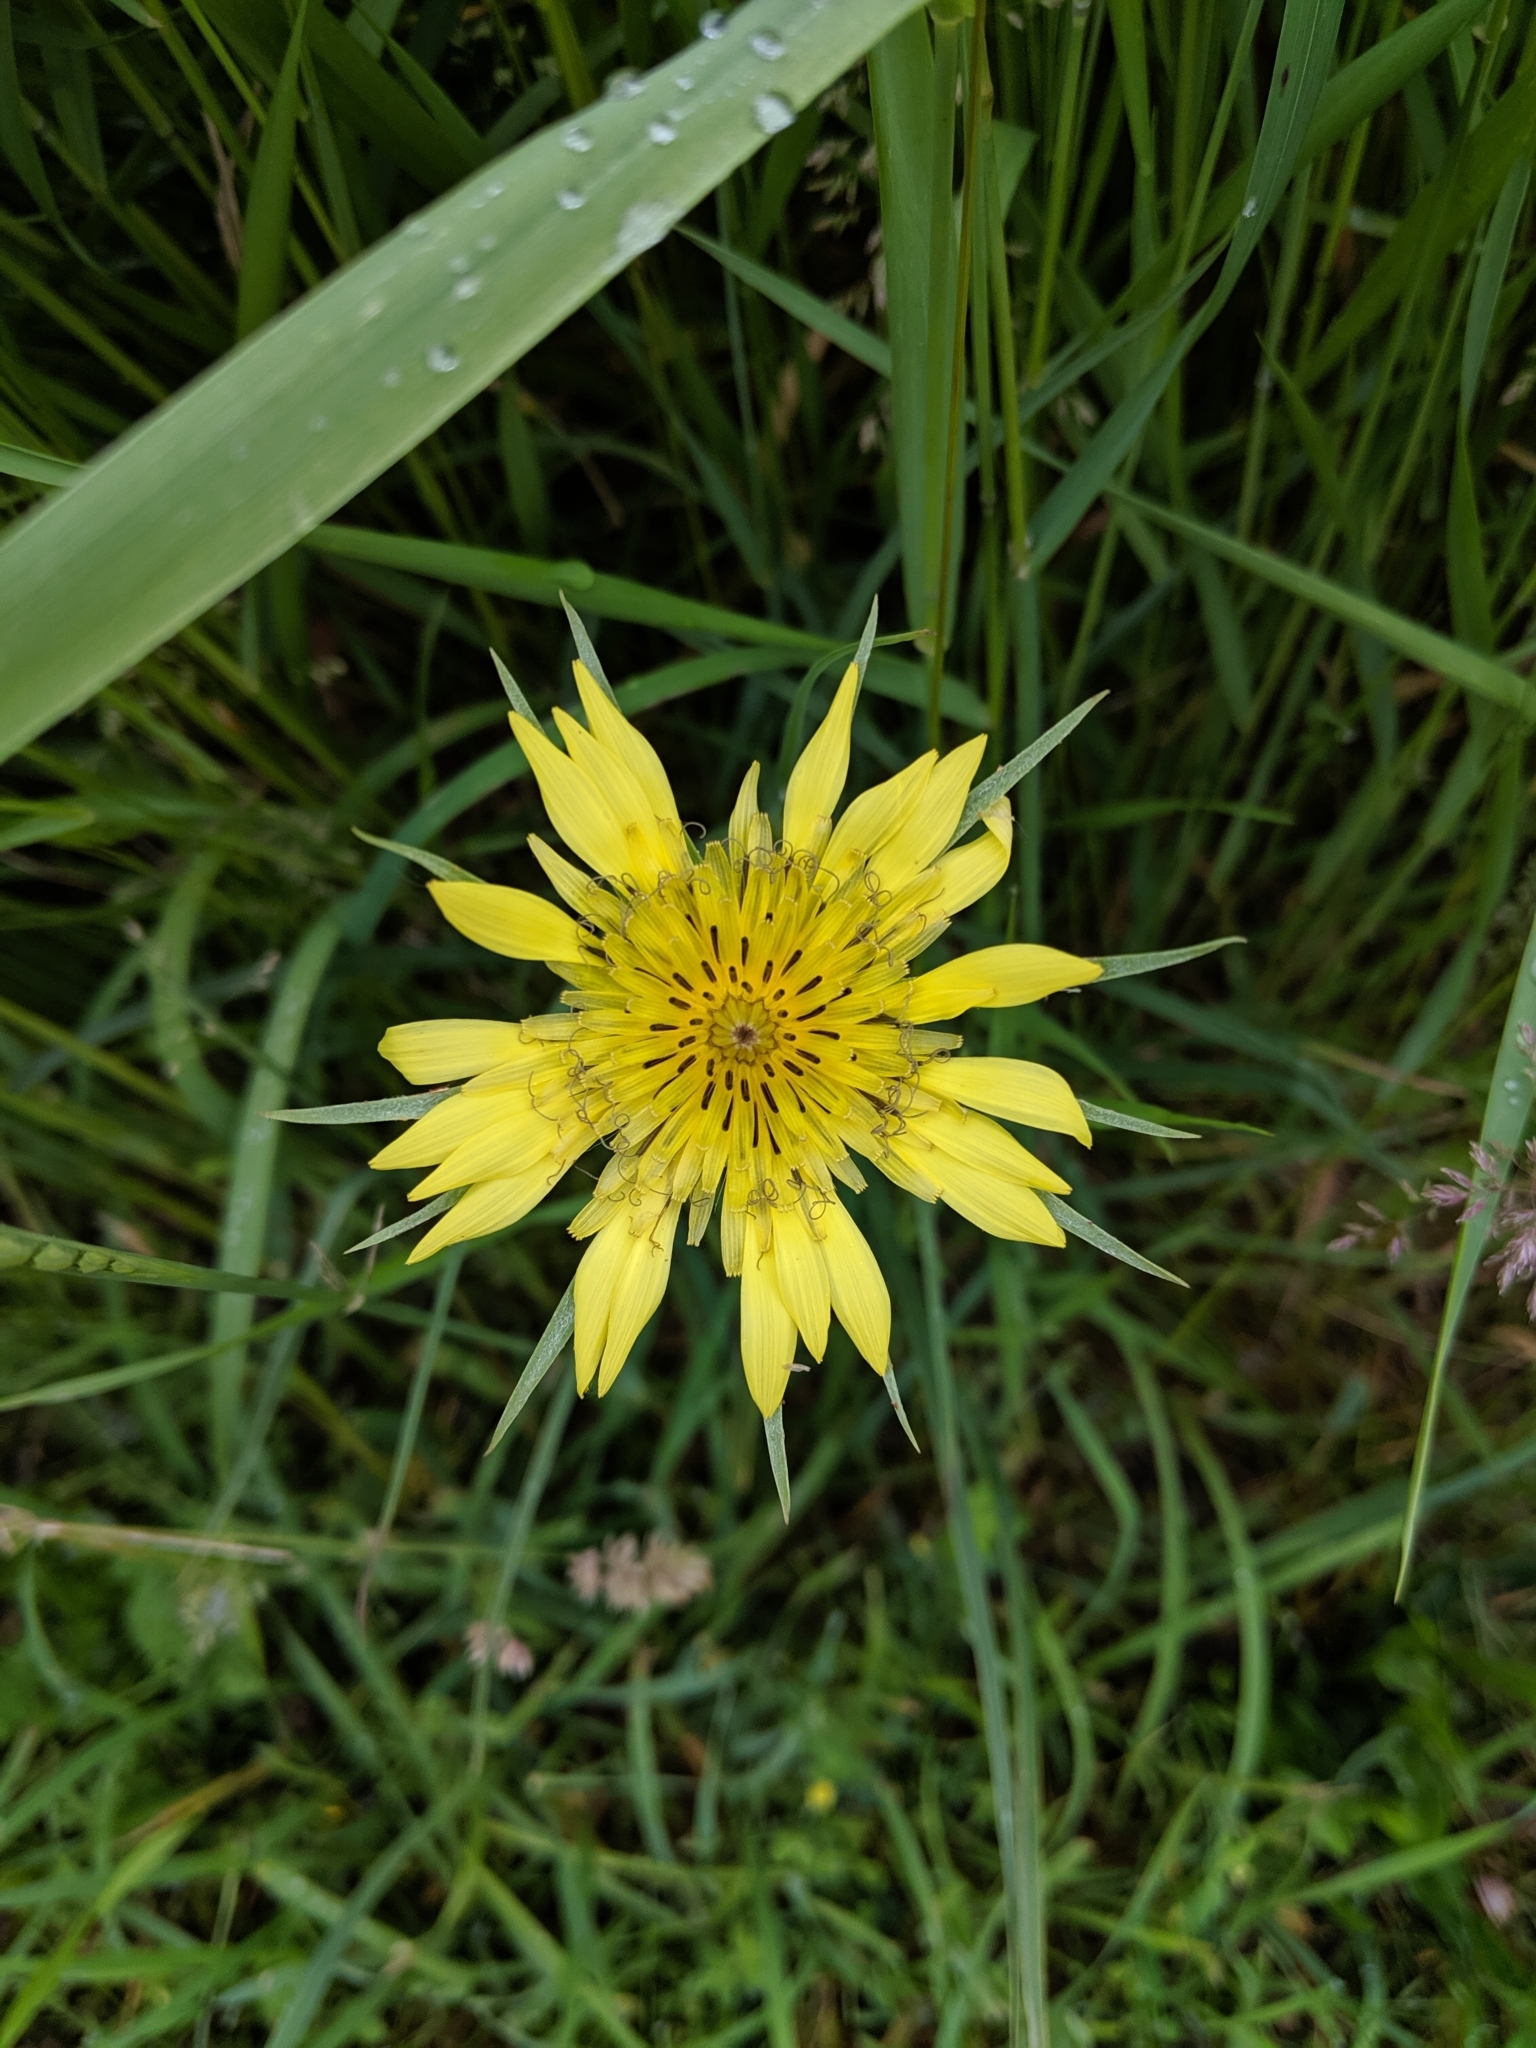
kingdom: Plantae
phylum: Tracheophyta
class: Magnoliopsida
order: Asterales
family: Asteraceae
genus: Tragopogon
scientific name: Tragopogon dubius
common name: Yellow salsify
